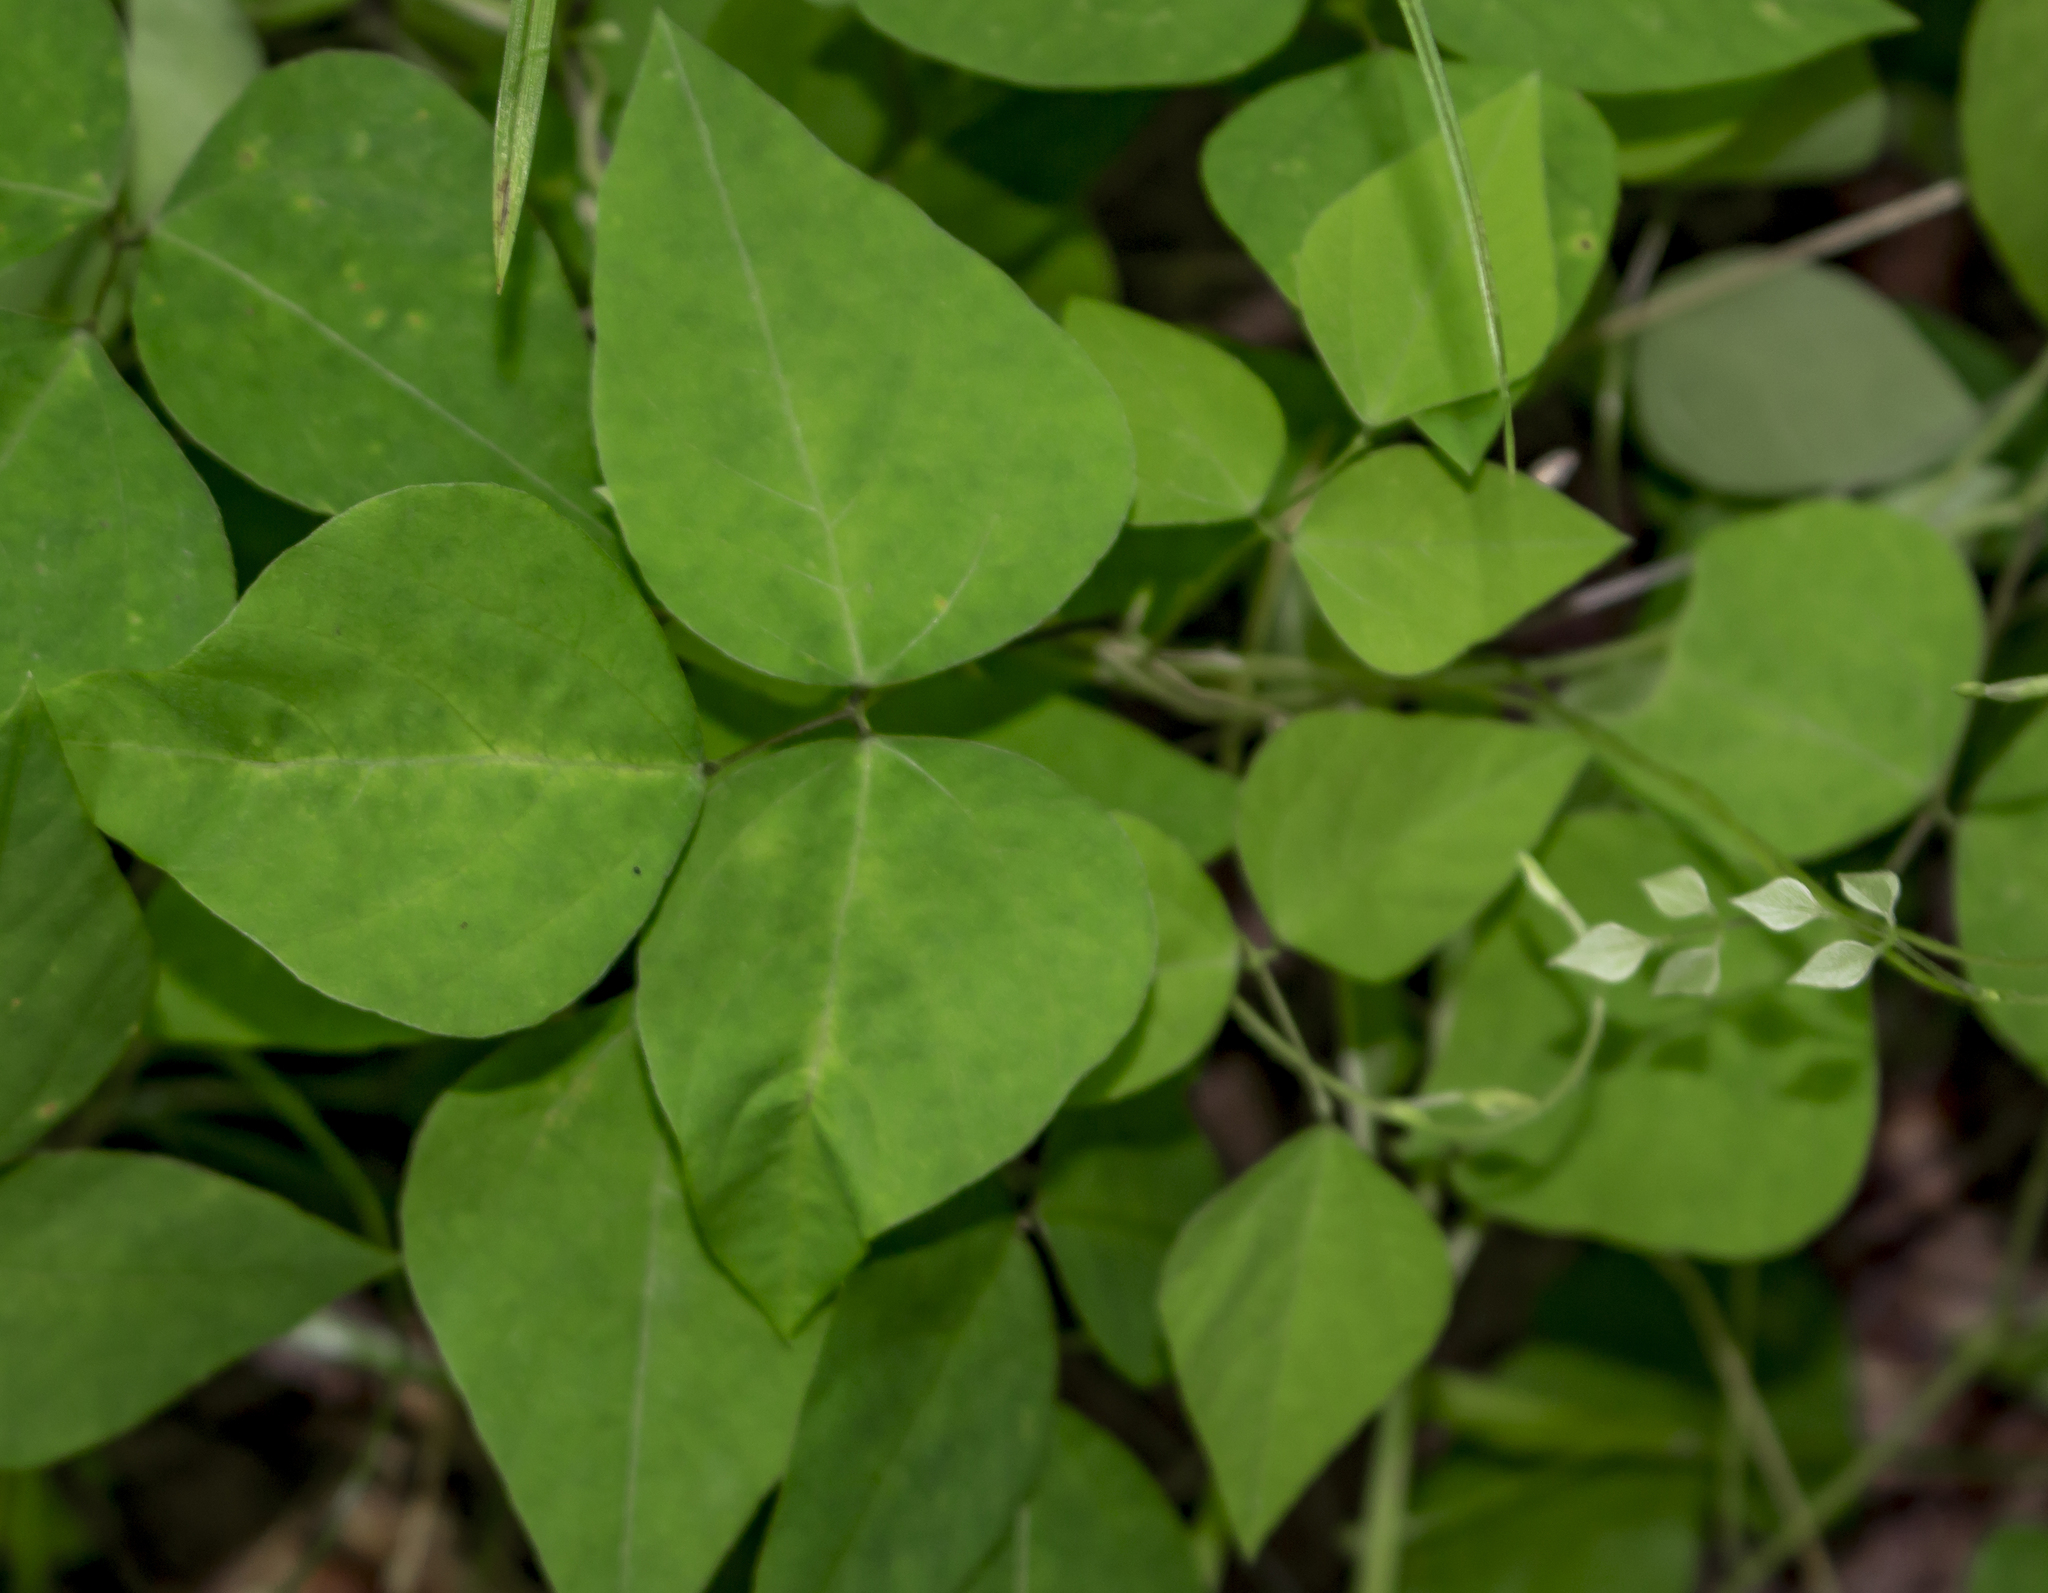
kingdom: Plantae
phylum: Tracheophyta
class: Magnoliopsida
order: Fabales
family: Fabaceae
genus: Amphicarpaea
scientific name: Amphicarpaea bracteata
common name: American hog peanut
